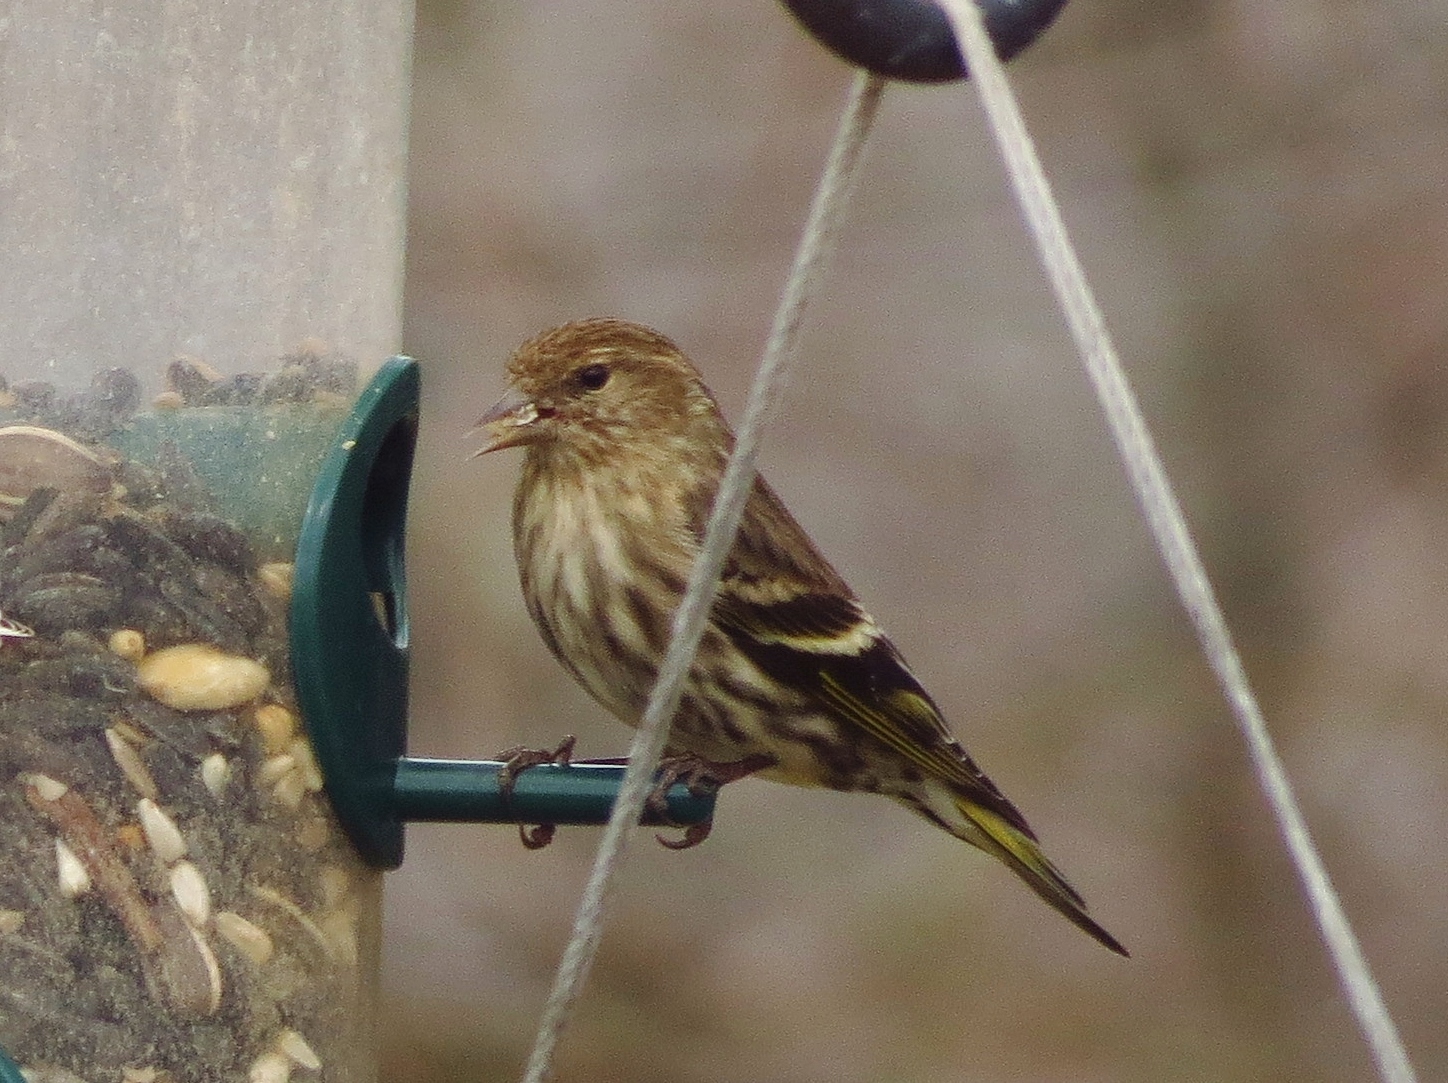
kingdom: Animalia
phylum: Chordata
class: Aves
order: Passeriformes
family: Fringillidae
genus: Spinus
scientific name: Spinus pinus
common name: Pine siskin
